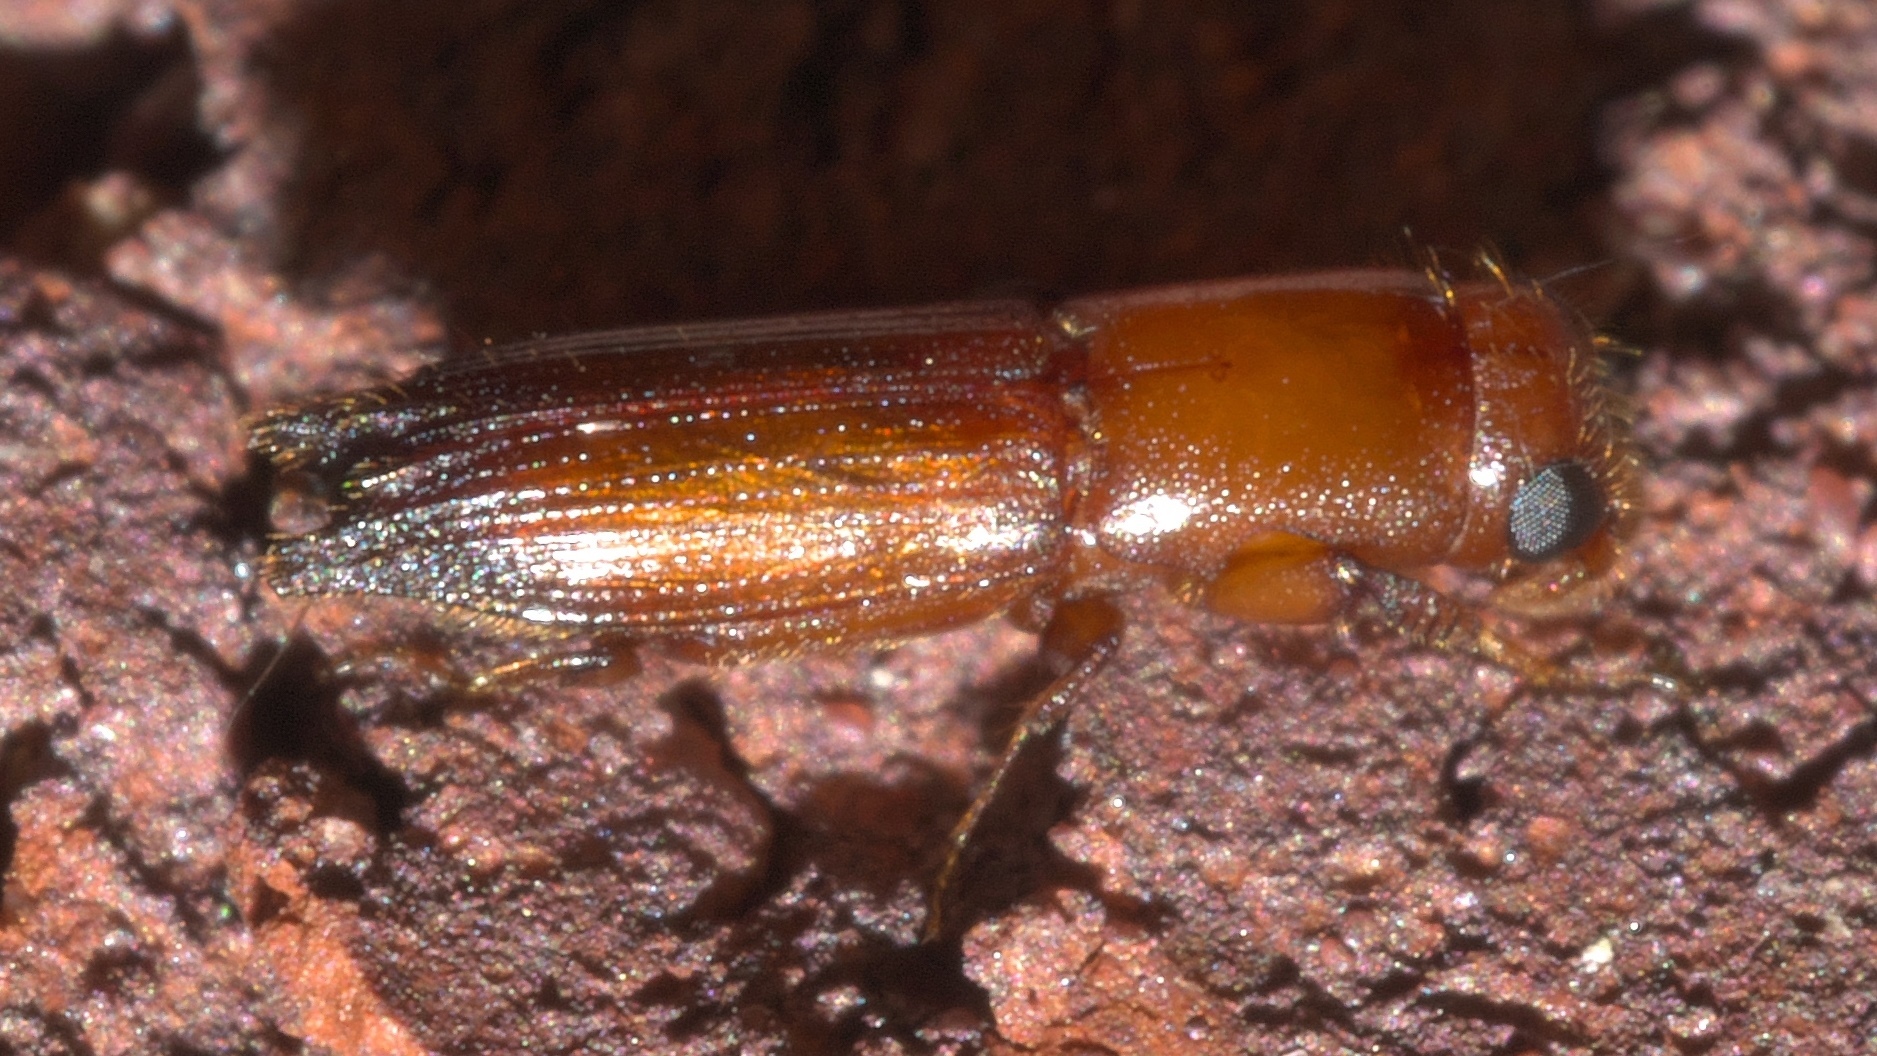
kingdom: Animalia
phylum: Arthropoda
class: Insecta
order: Coleoptera
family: Curculionidae
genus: Euplatypus
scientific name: Euplatypus compositus
